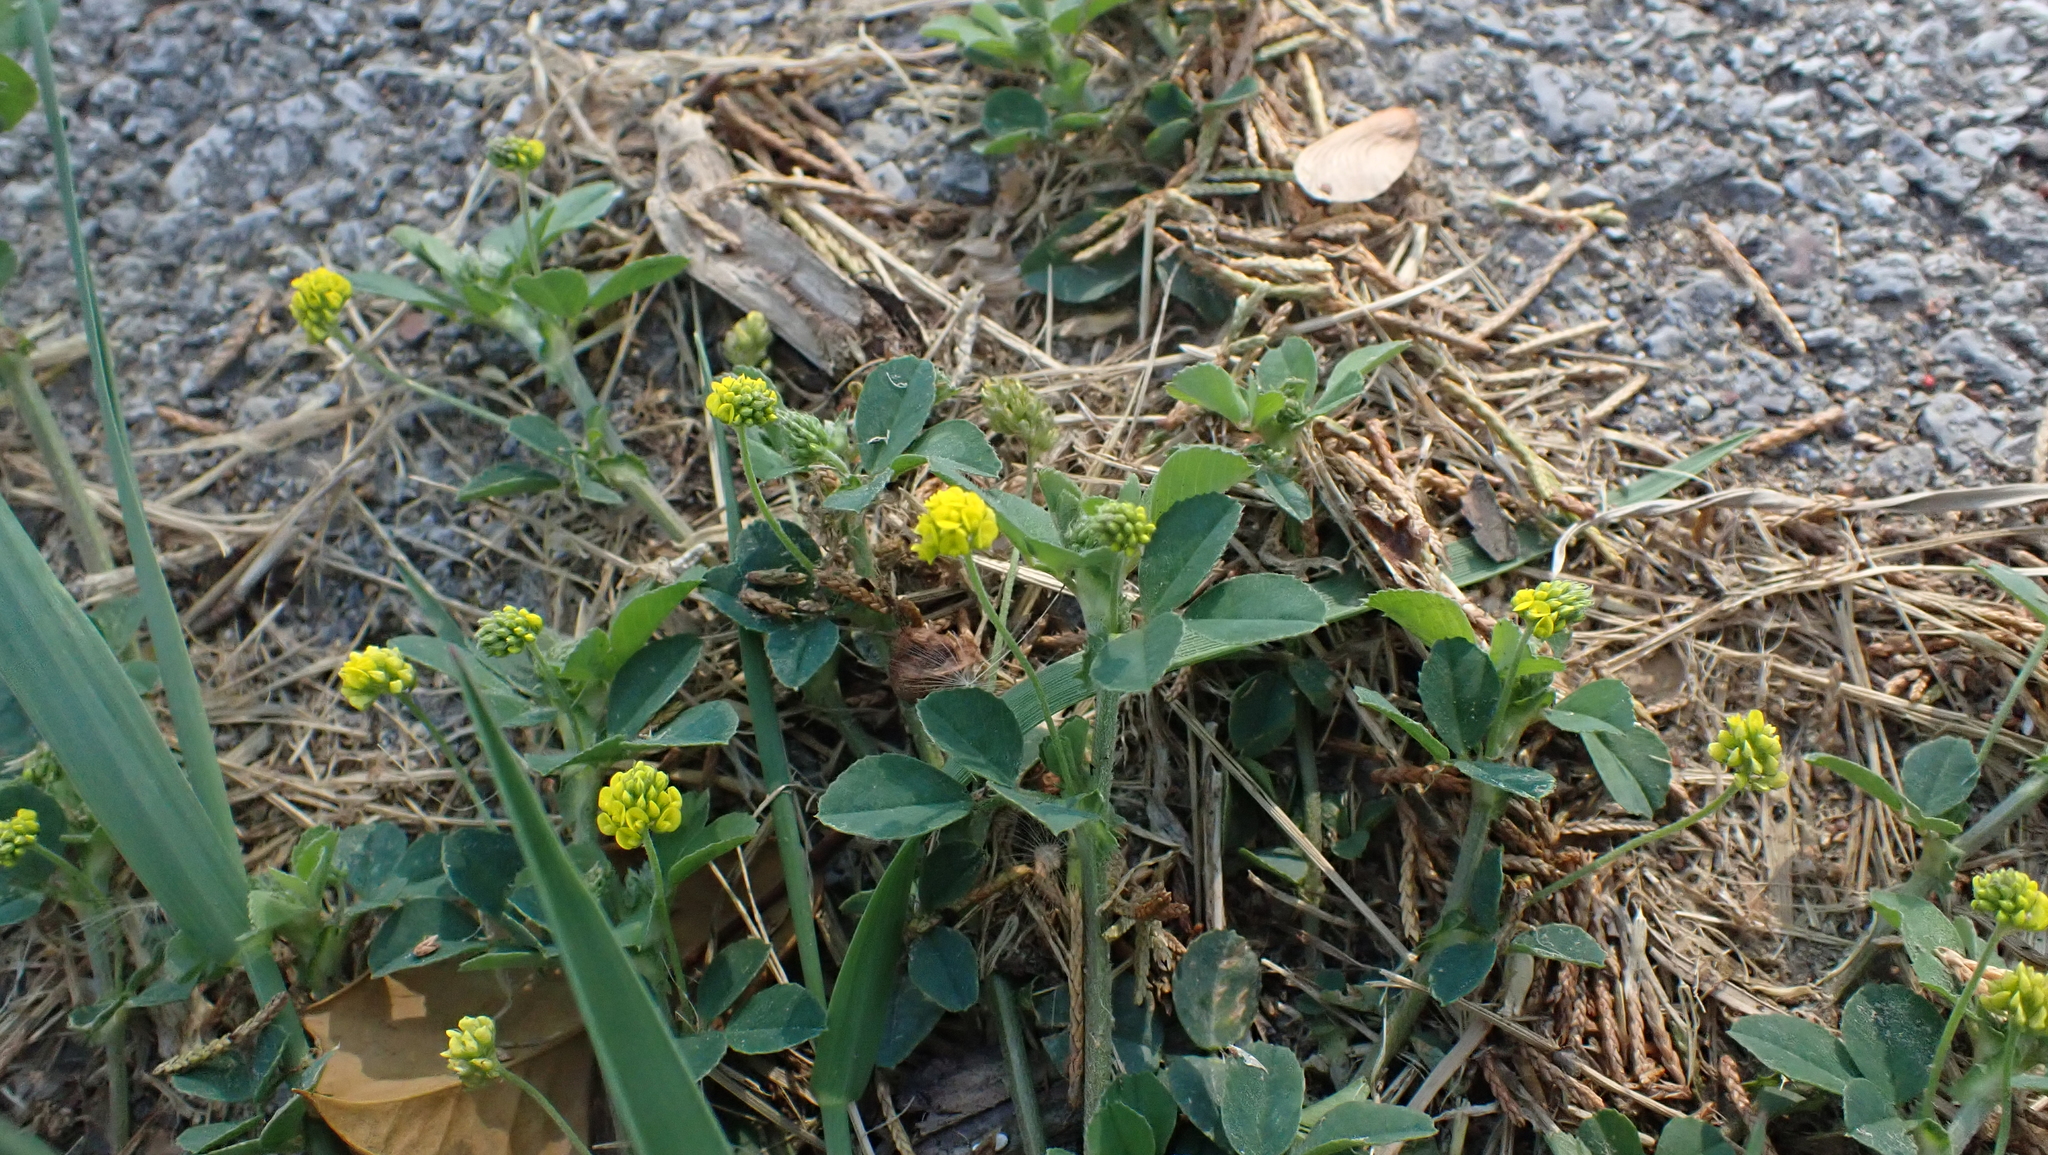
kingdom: Plantae
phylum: Tracheophyta
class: Magnoliopsida
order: Fabales
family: Fabaceae
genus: Medicago
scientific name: Medicago lupulina
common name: Black medick
